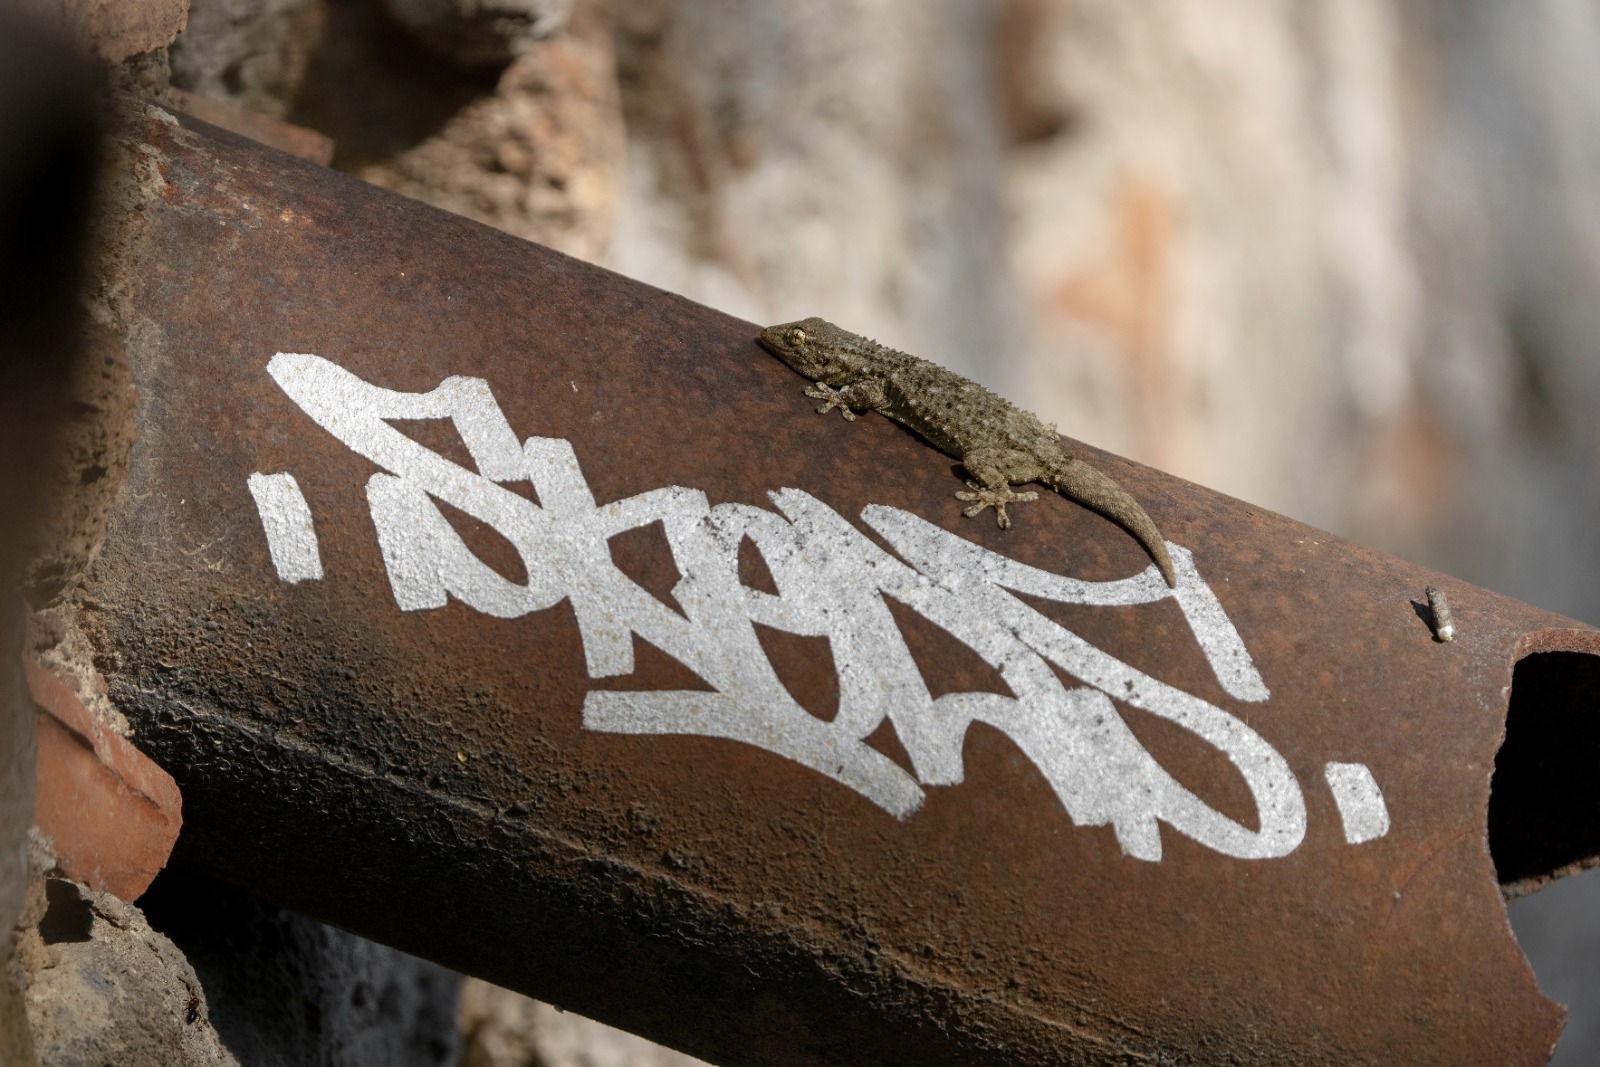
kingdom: Animalia
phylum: Chordata
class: Squamata
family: Phyllodactylidae
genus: Tarentola
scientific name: Tarentola mauritanica
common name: Moorish gecko
